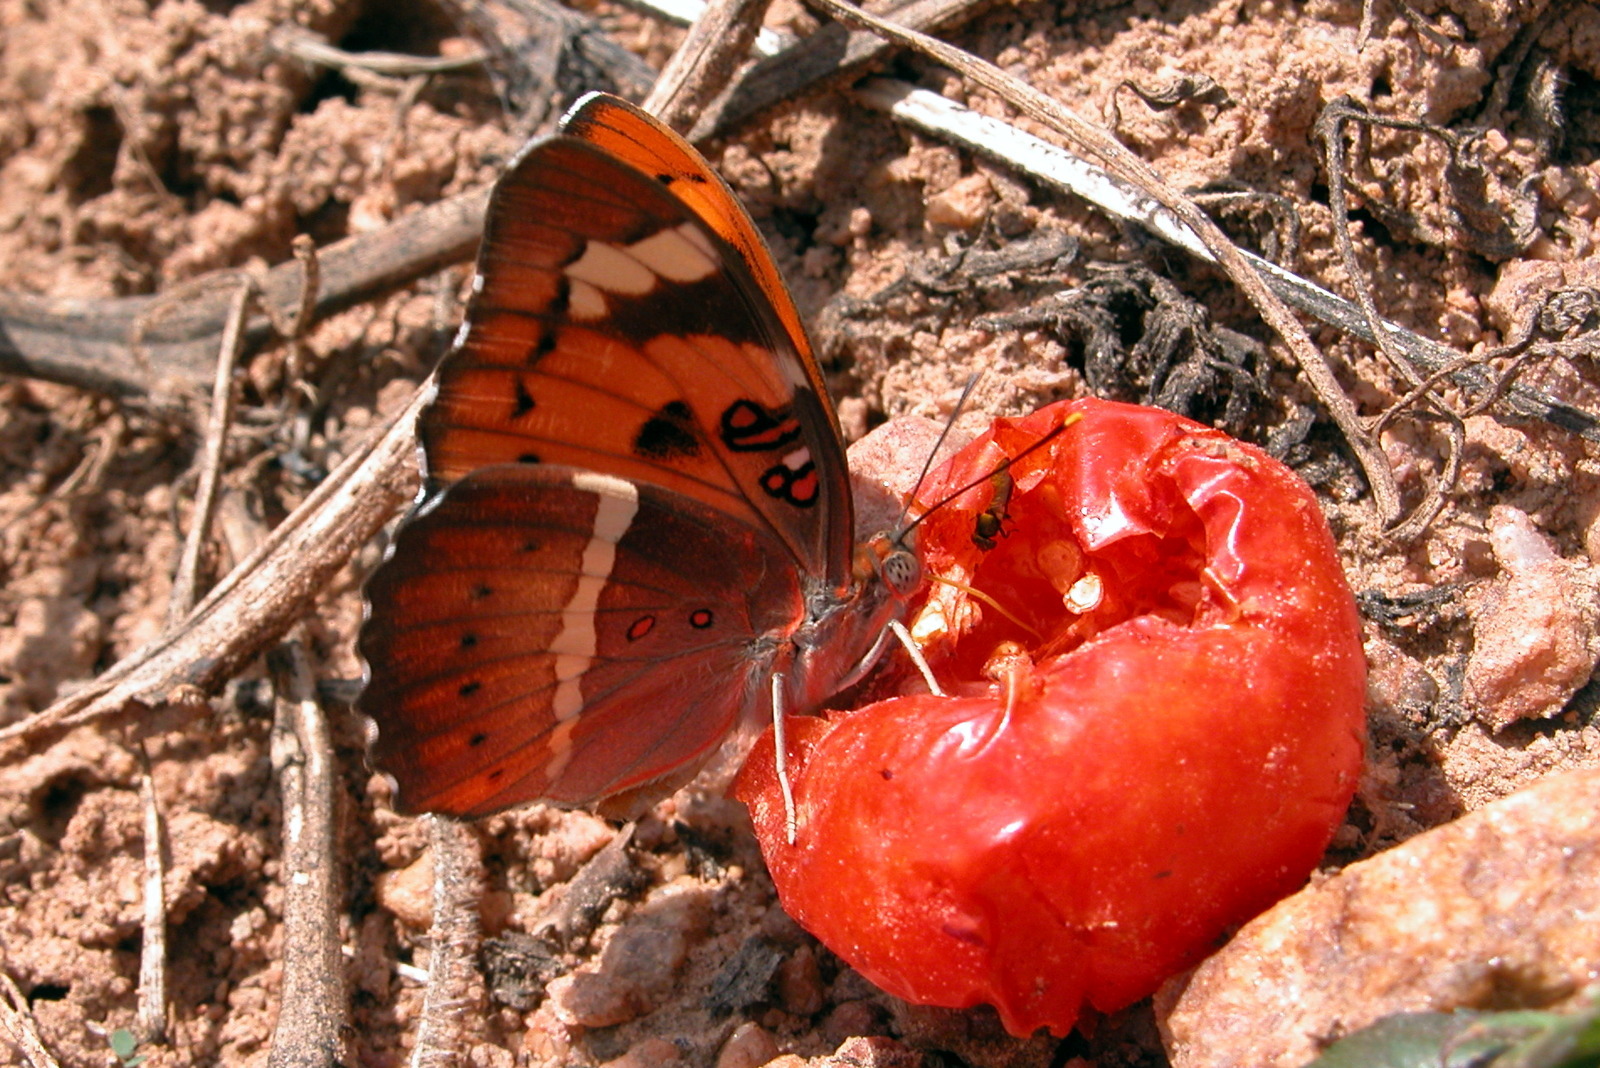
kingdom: Animalia
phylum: Arthropoda
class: Insecta
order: Lepidoptera
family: Nymphalidae
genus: Euthalia
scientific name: Euthalia nais
